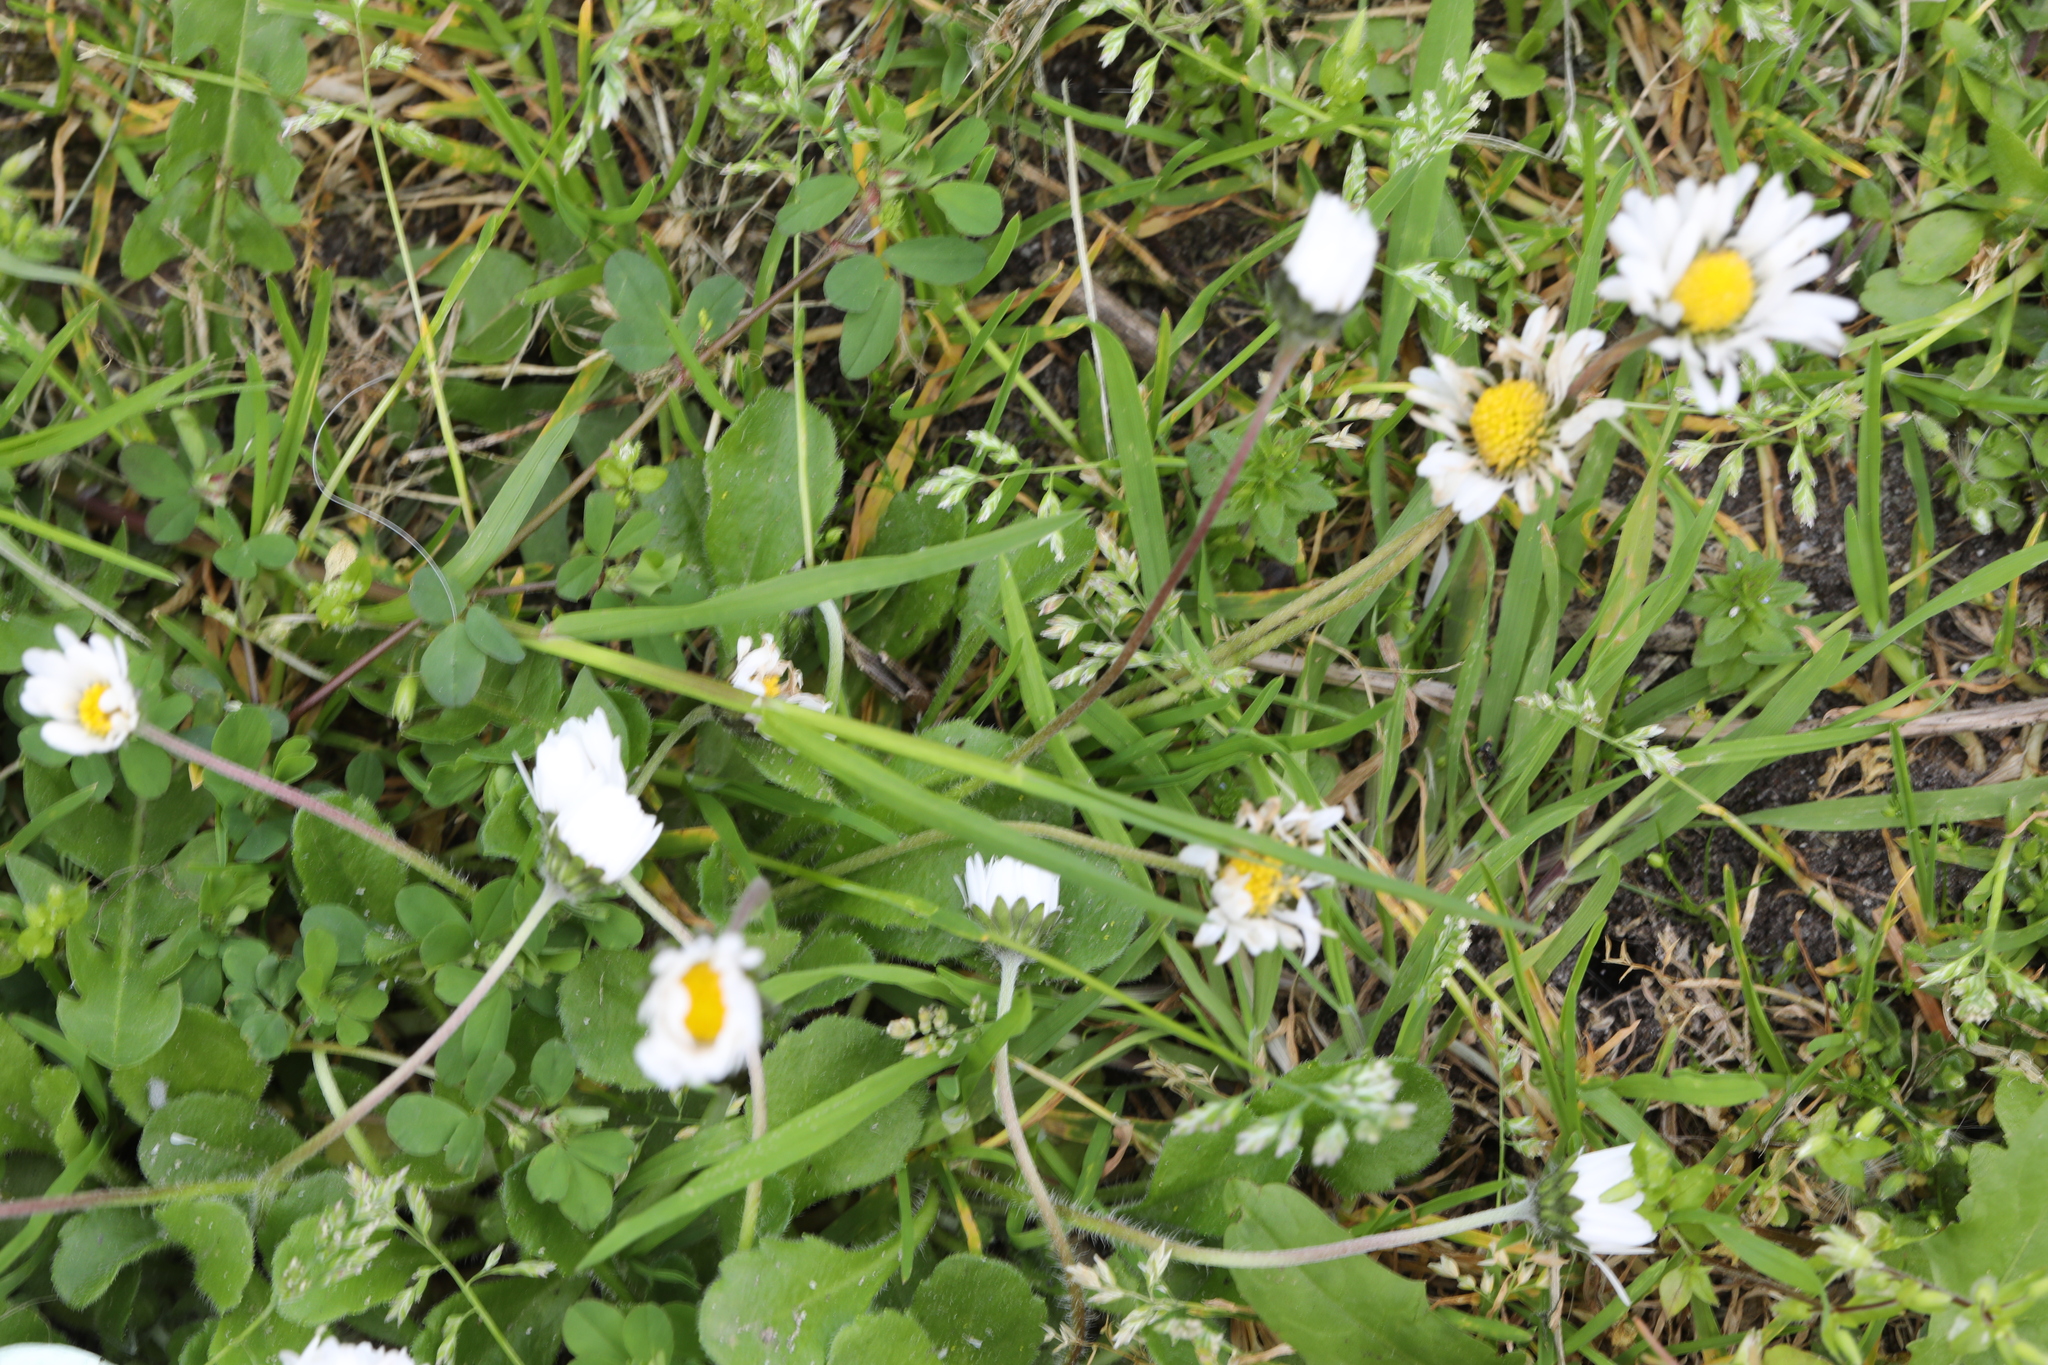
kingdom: Plantae
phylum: Tracheophyta
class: Magnoliopsida
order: Asterales
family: Asteraceae
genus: Bellis
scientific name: Bellis perennis
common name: Lawndaisy
